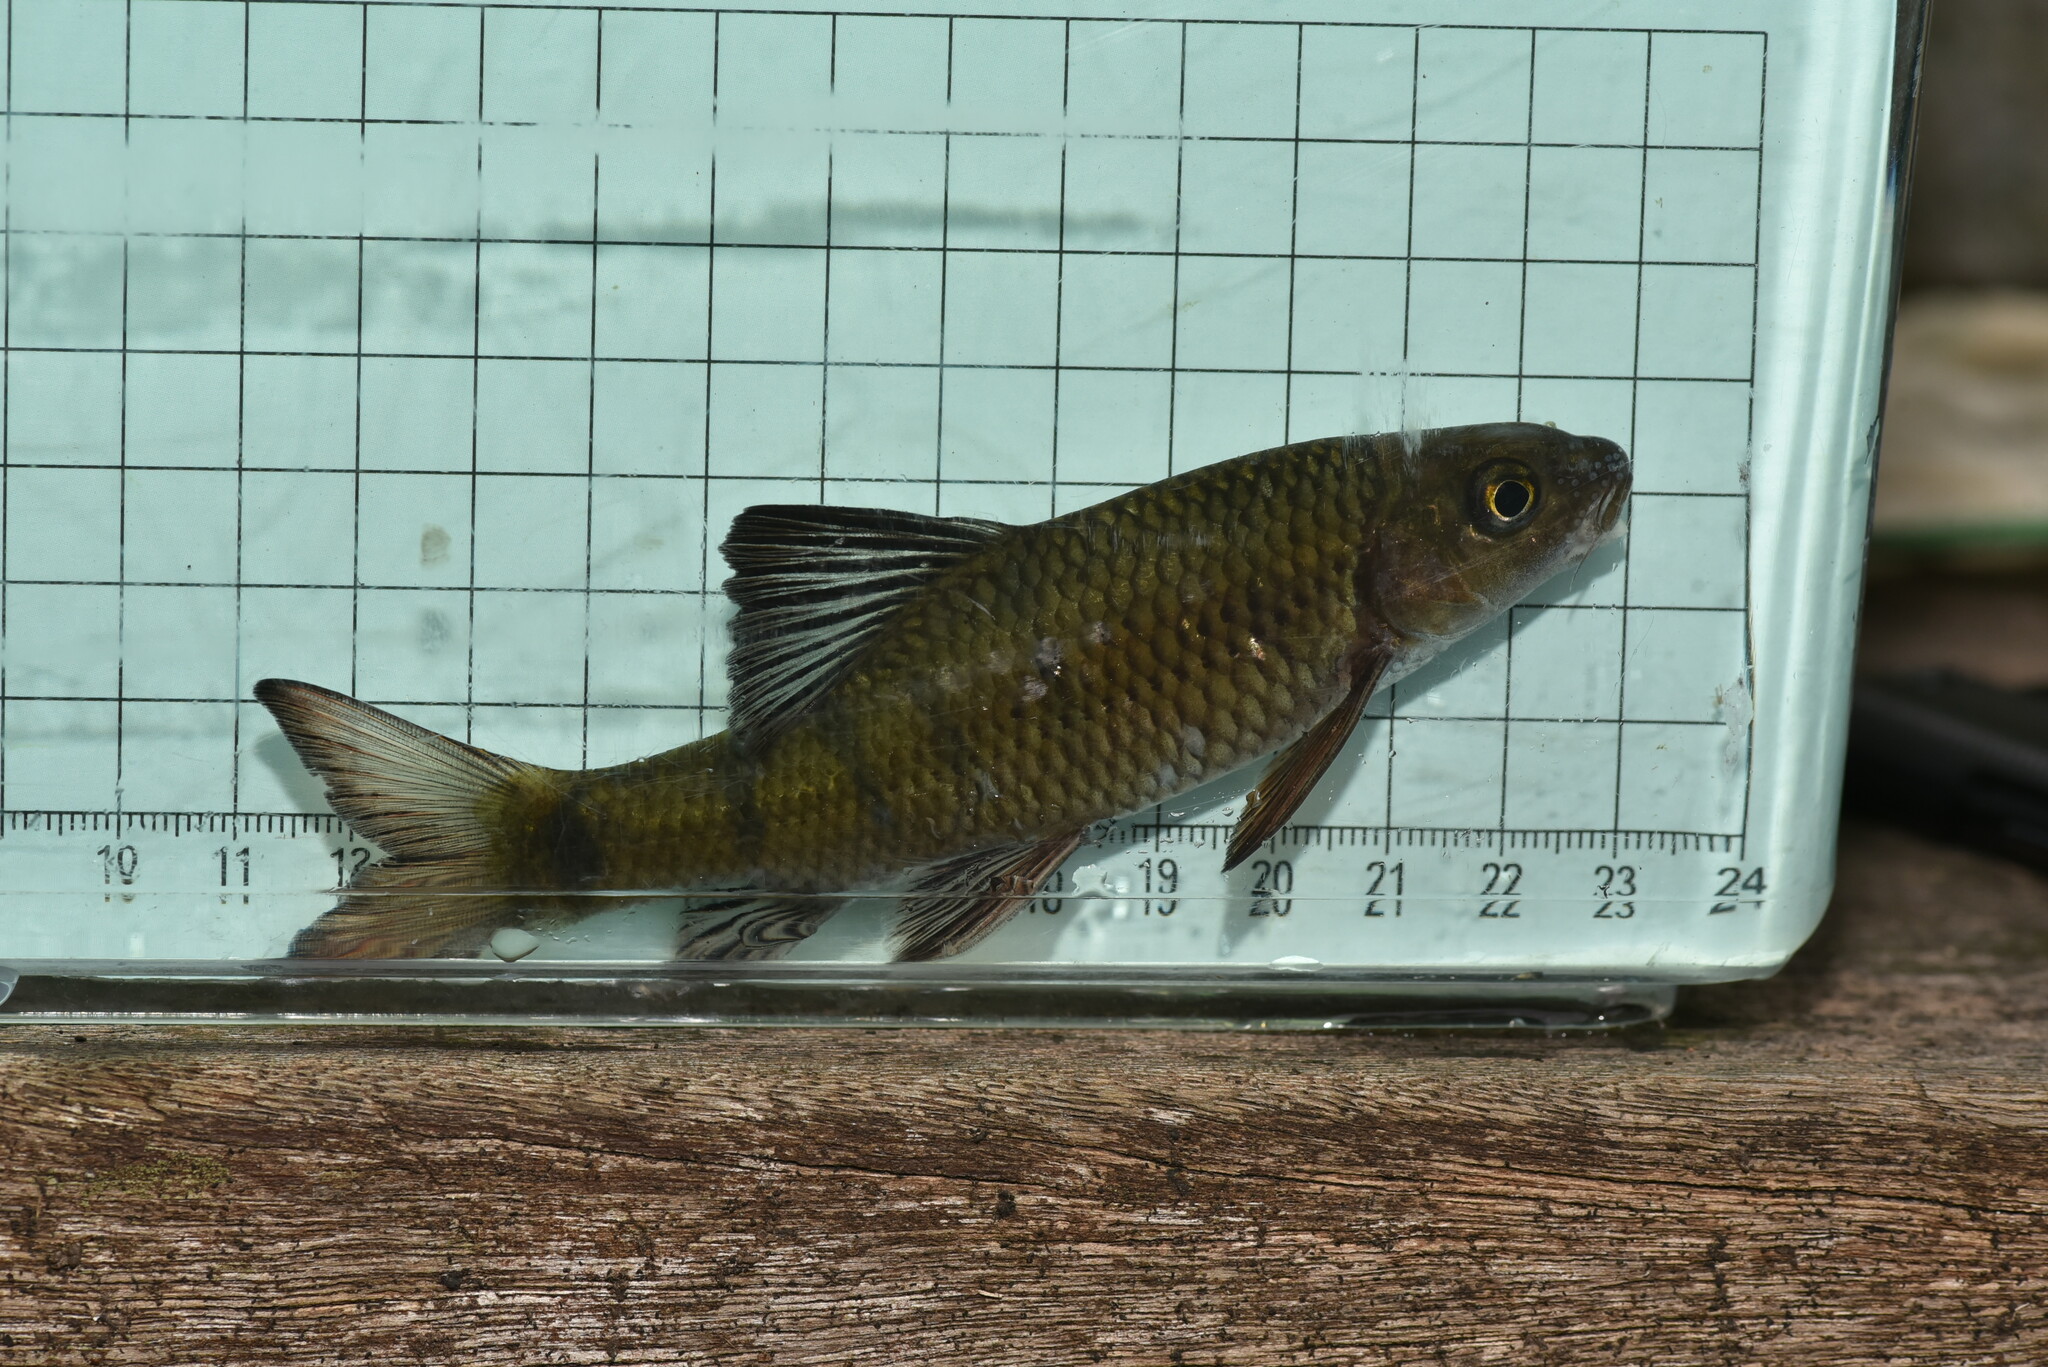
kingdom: Animalia
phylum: Chordata
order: Cypriniformes
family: Cyprinidae
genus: Acrossocheilus
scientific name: Acrossocheilus paradoxus
